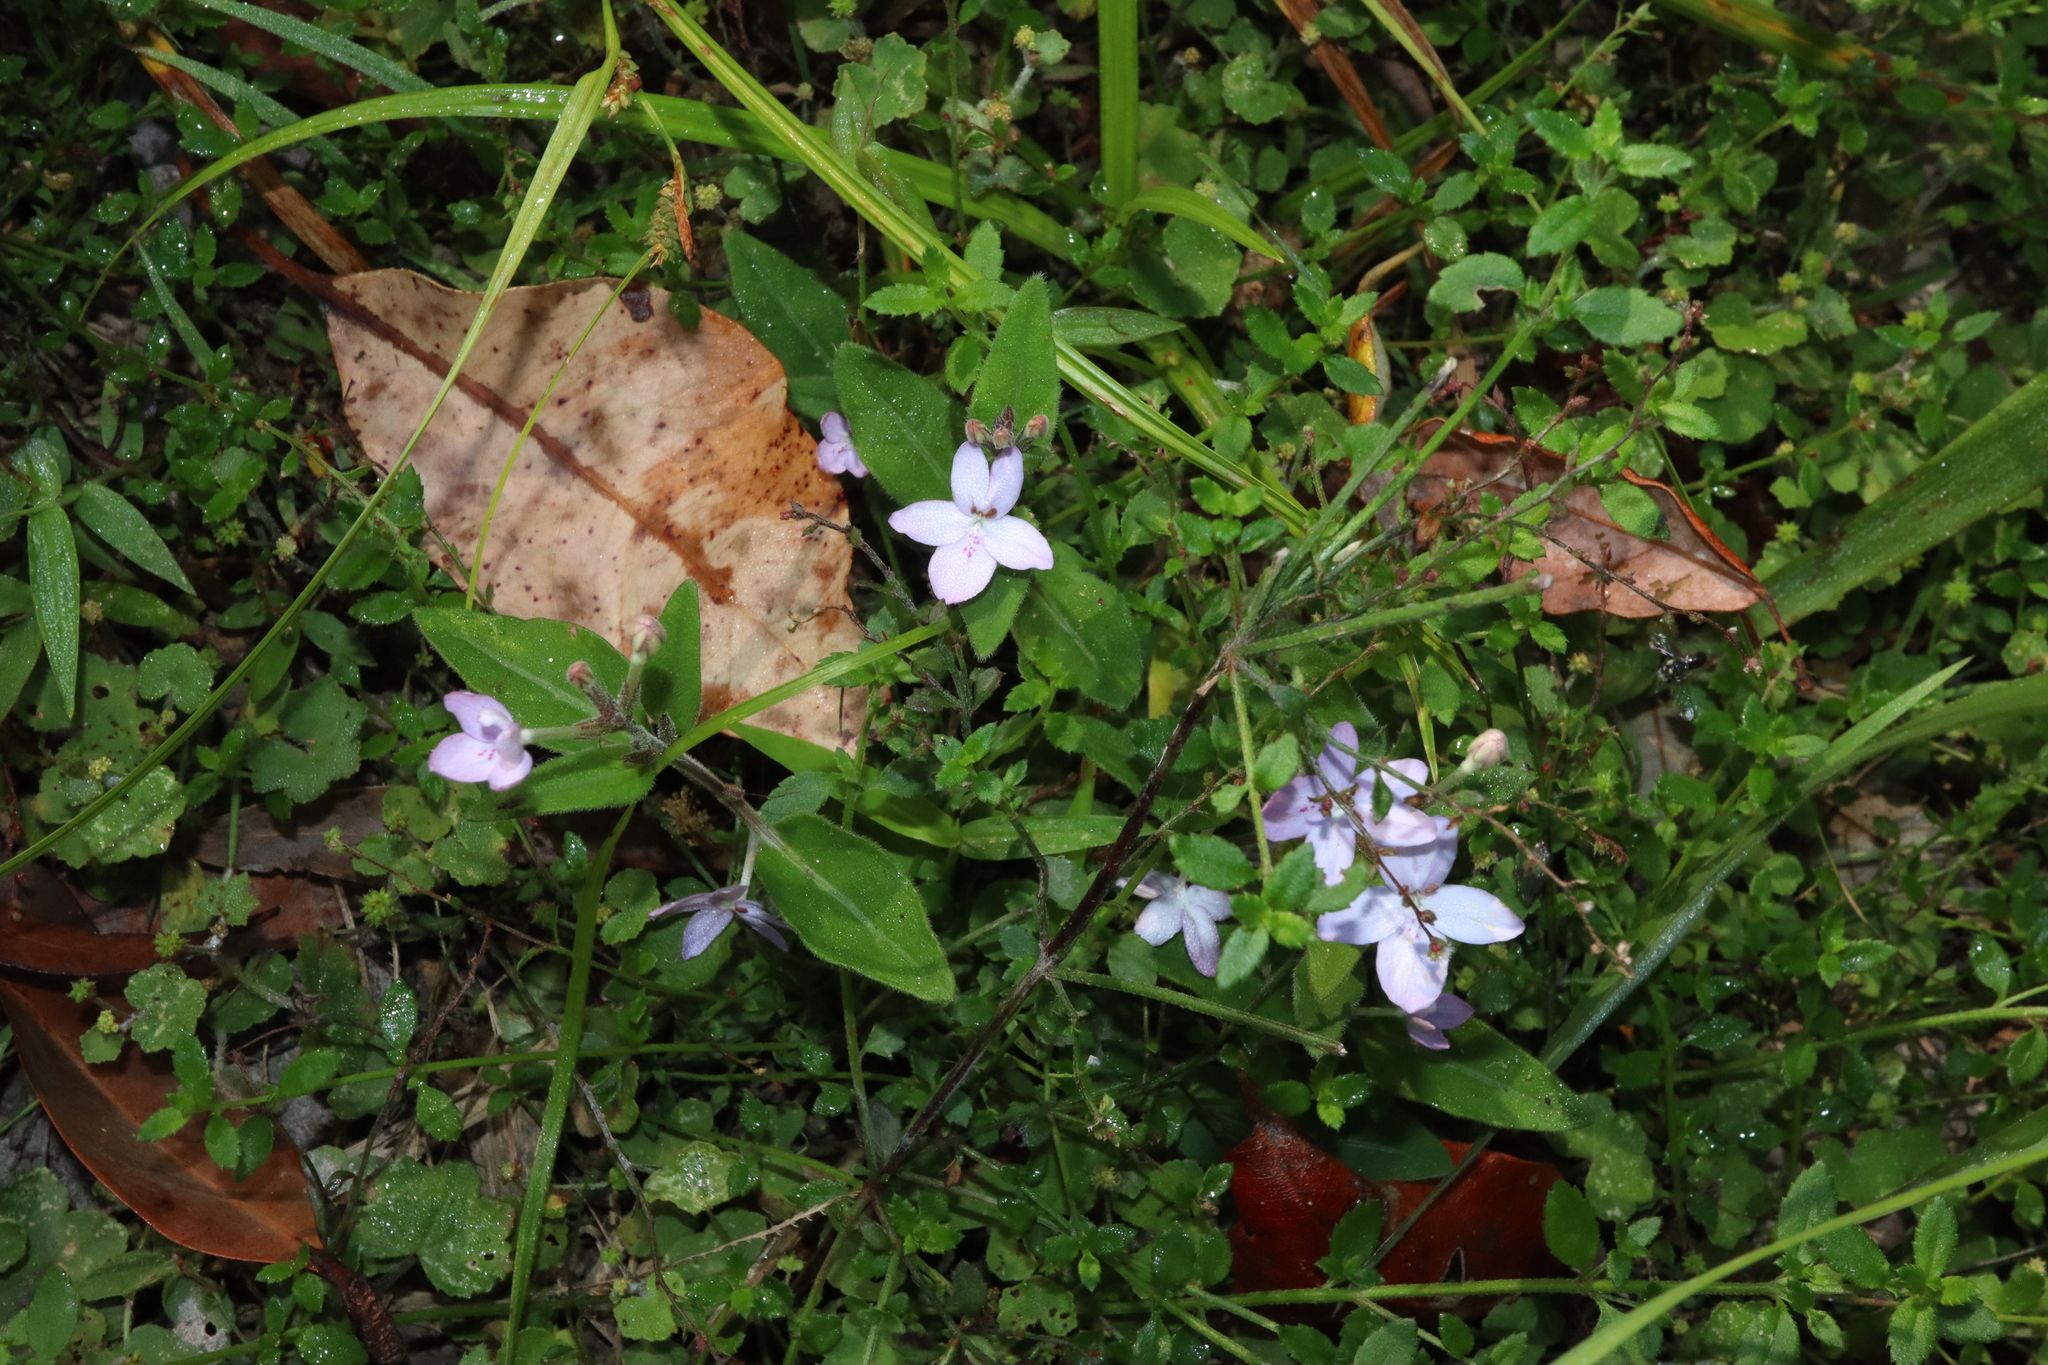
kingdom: Plantae
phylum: Tracheophyta
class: Magnoliopsida
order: Lamiales
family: Acanthaceae
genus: Pseuderanthemum
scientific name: Pseuderanthemum variabile
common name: Night and afternoon
